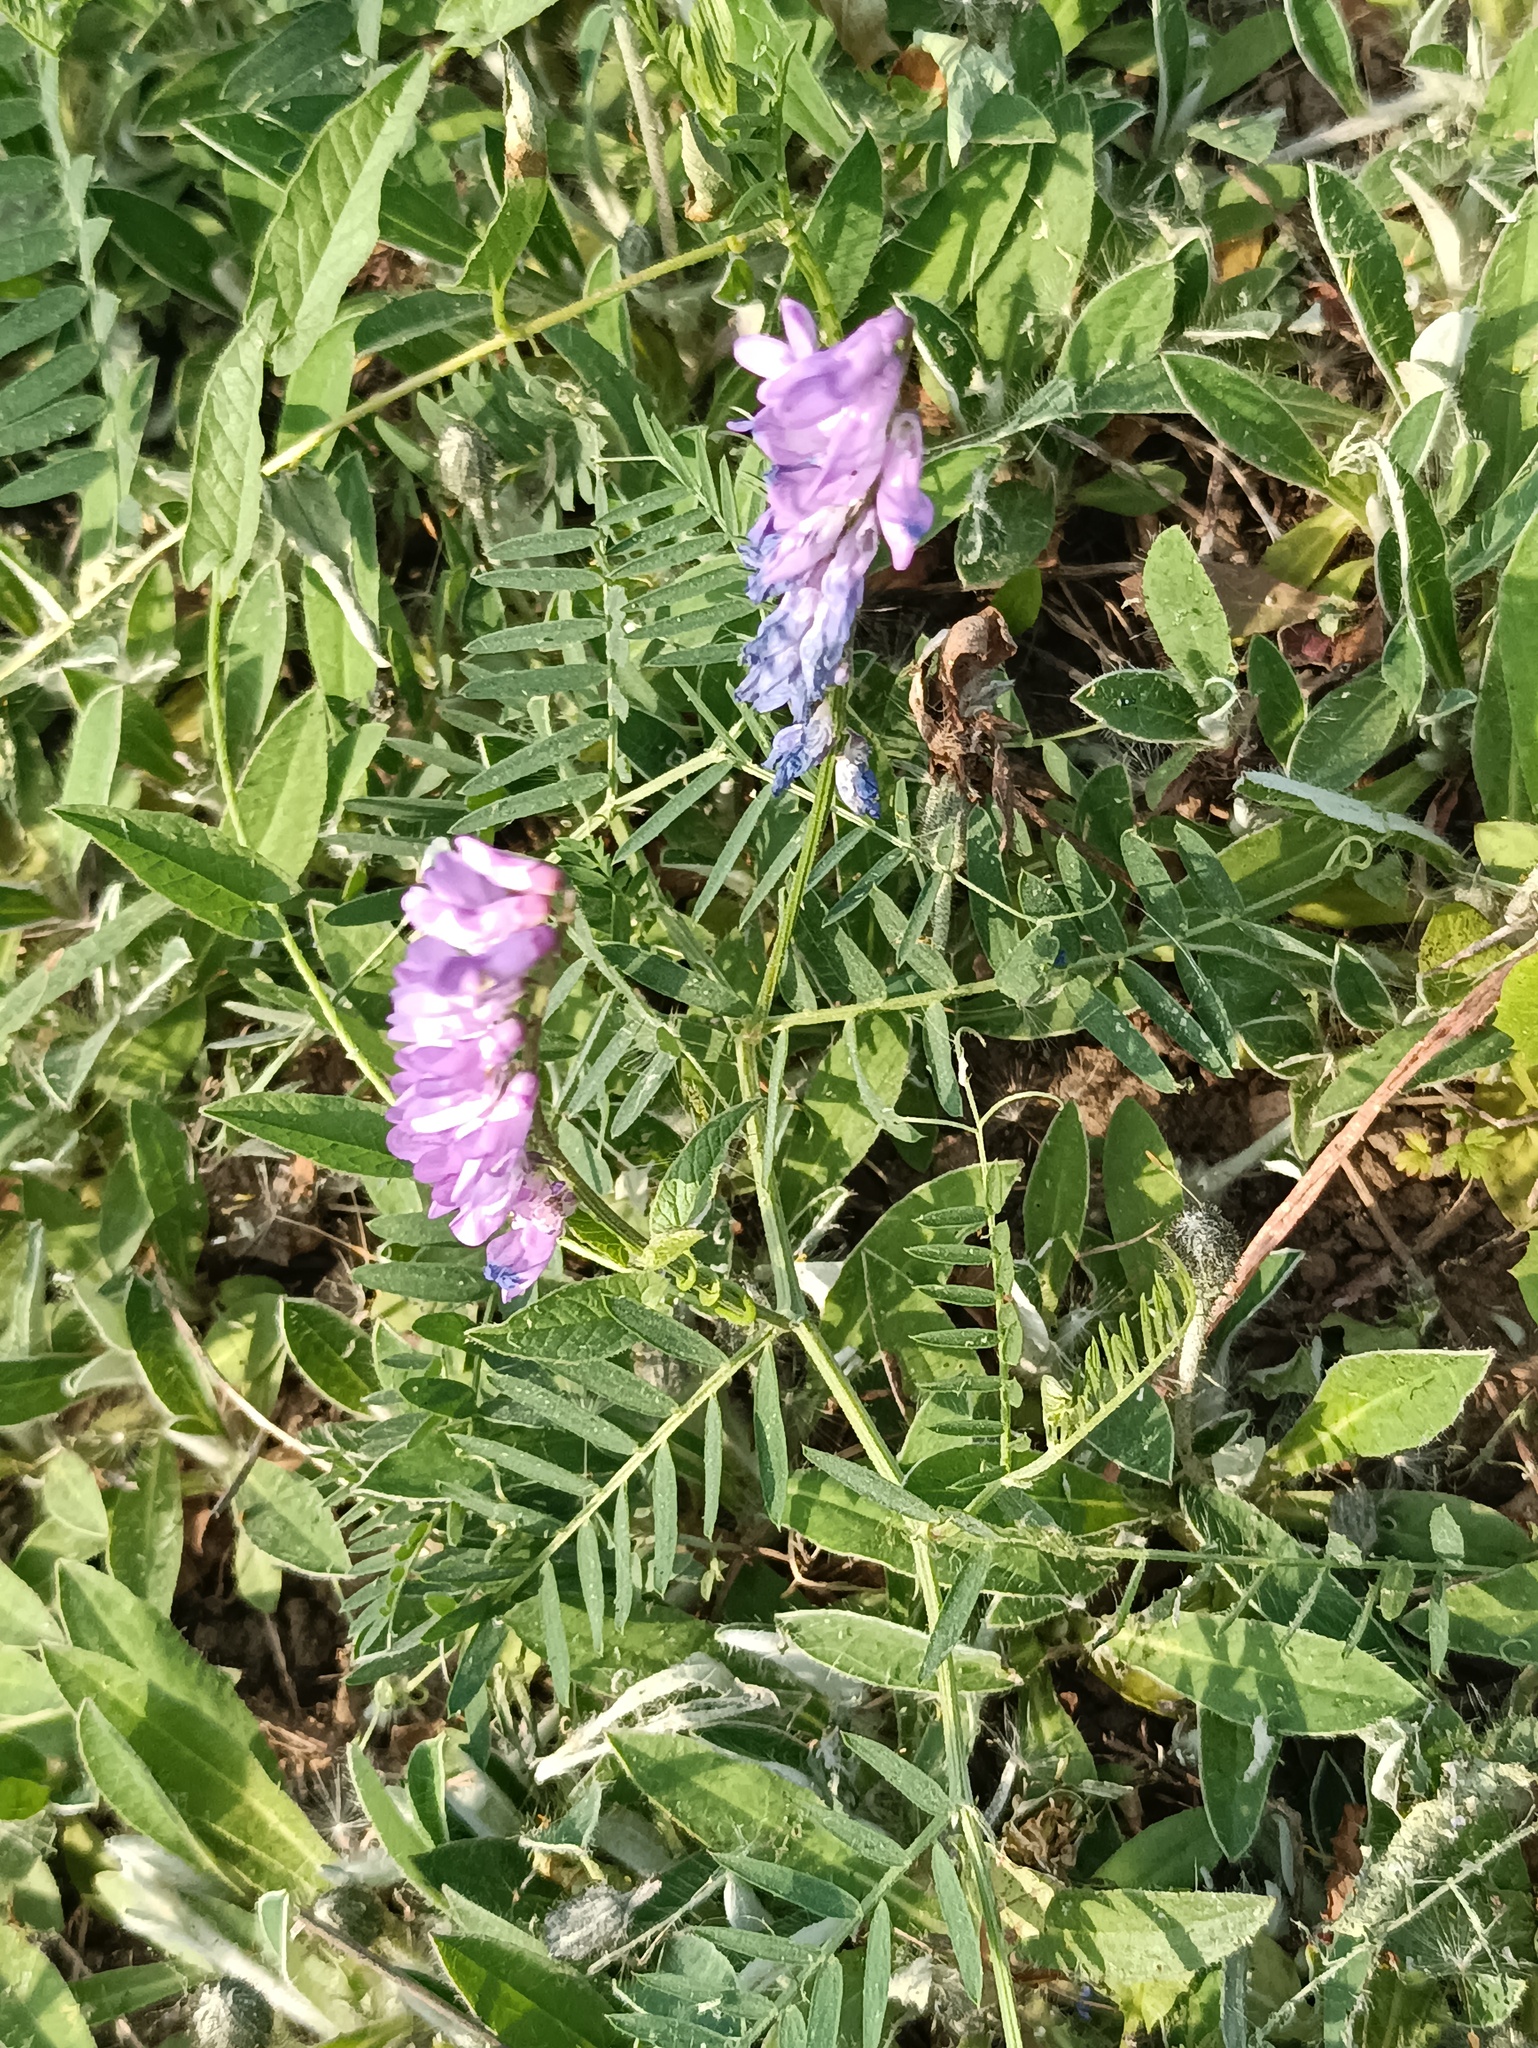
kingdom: Plantae
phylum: Tracheophyta
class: Magnoliopsida
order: Fabales
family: Fabaceae
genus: Vicia
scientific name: Vicia cracca
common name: Bird vetch
